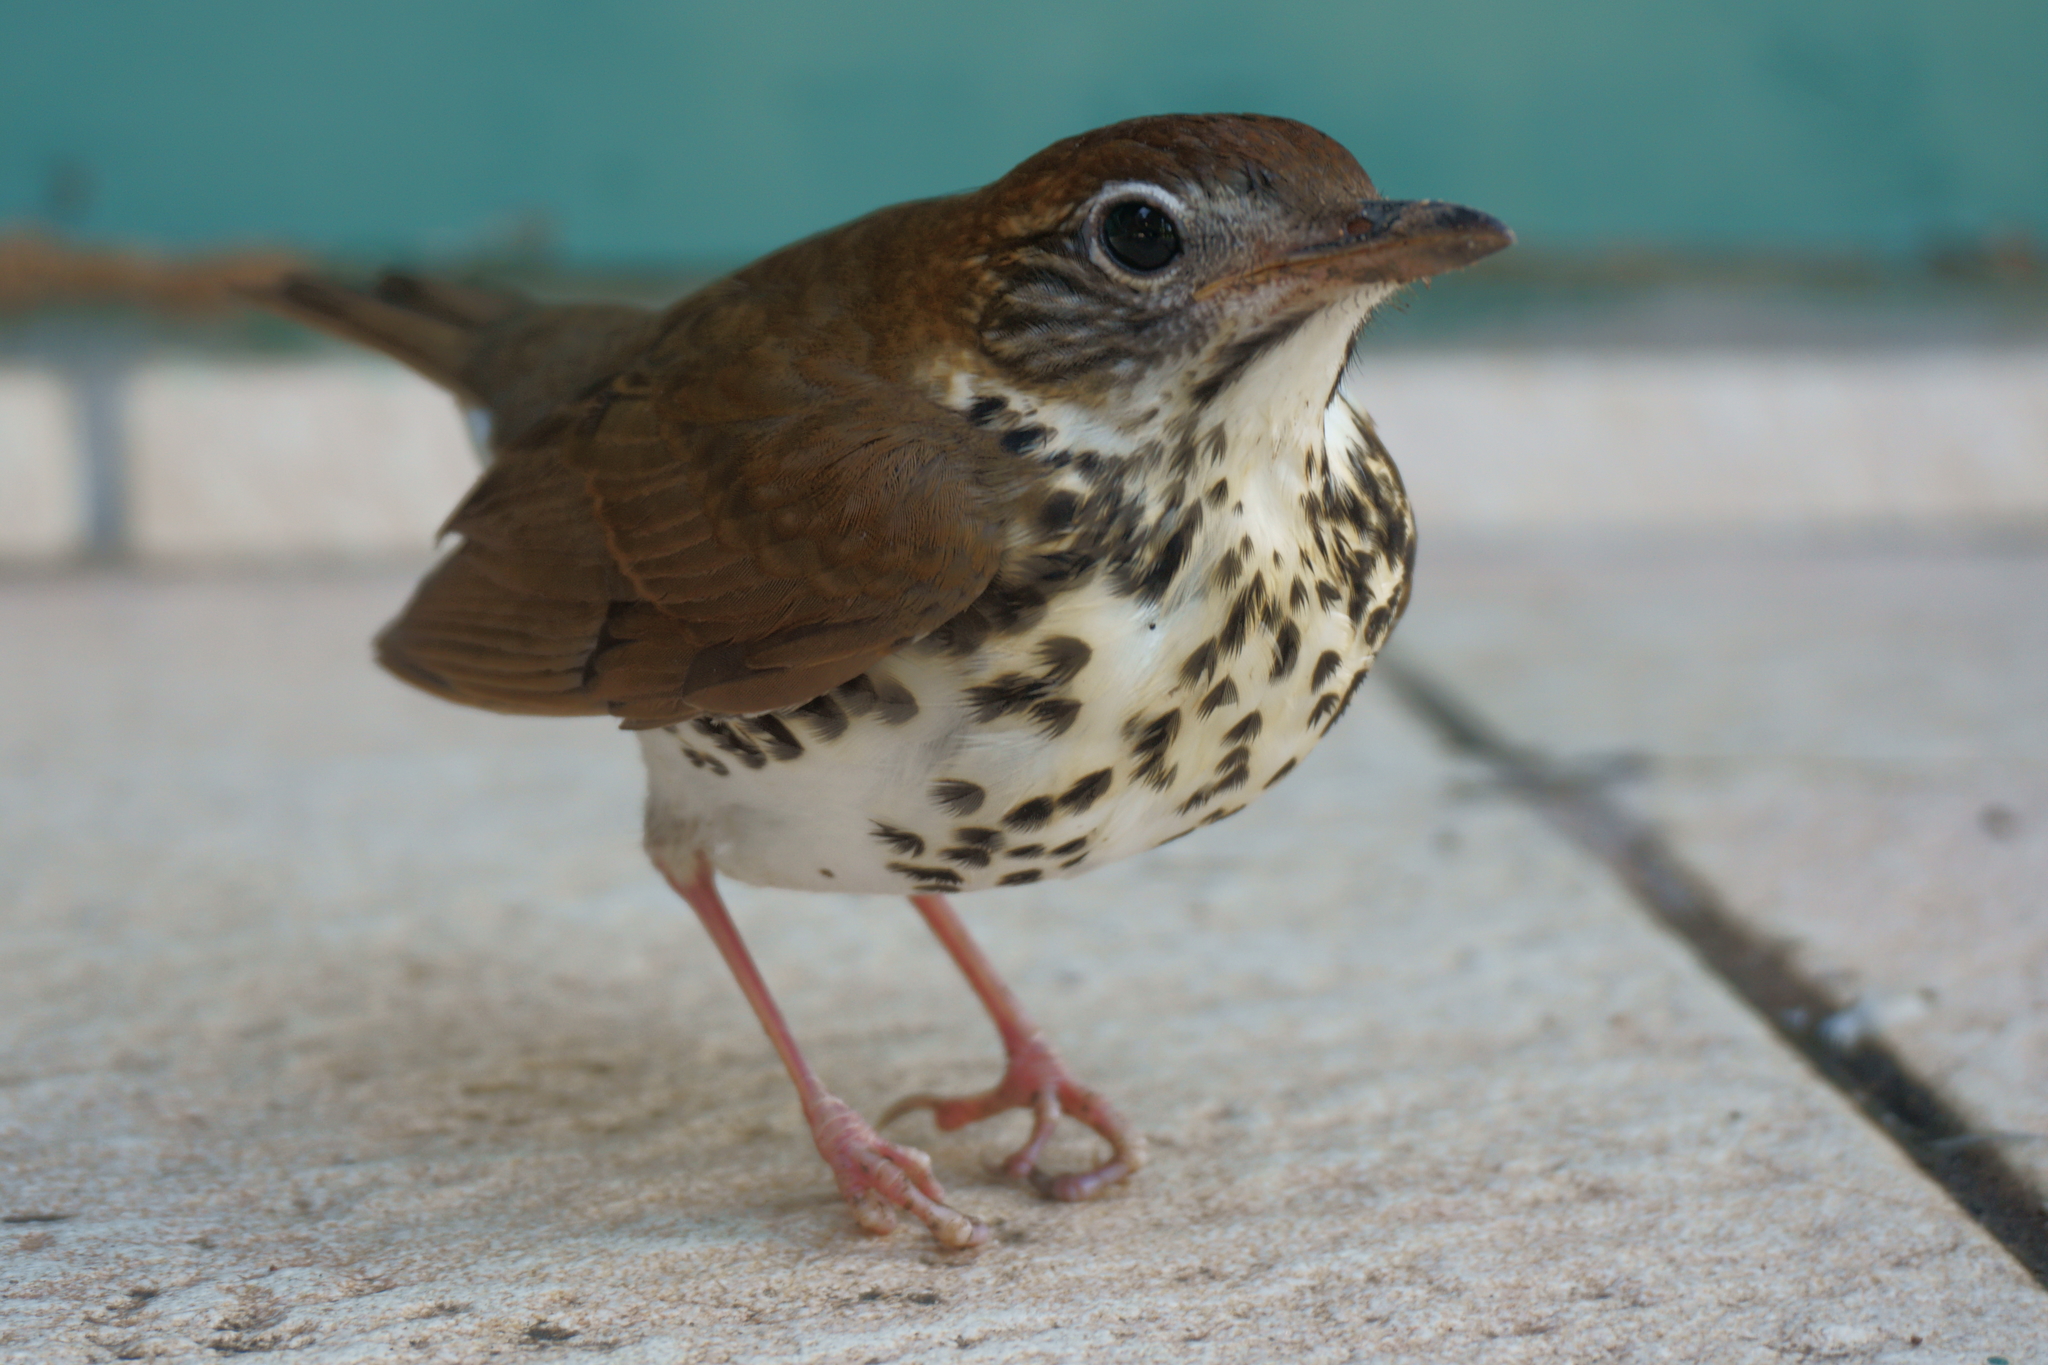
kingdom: Animalia
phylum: Chordata
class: Aves
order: Passeriformes
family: Turdidae
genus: Hylocichla
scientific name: Hylocichla mustelina
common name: Wood thrush
